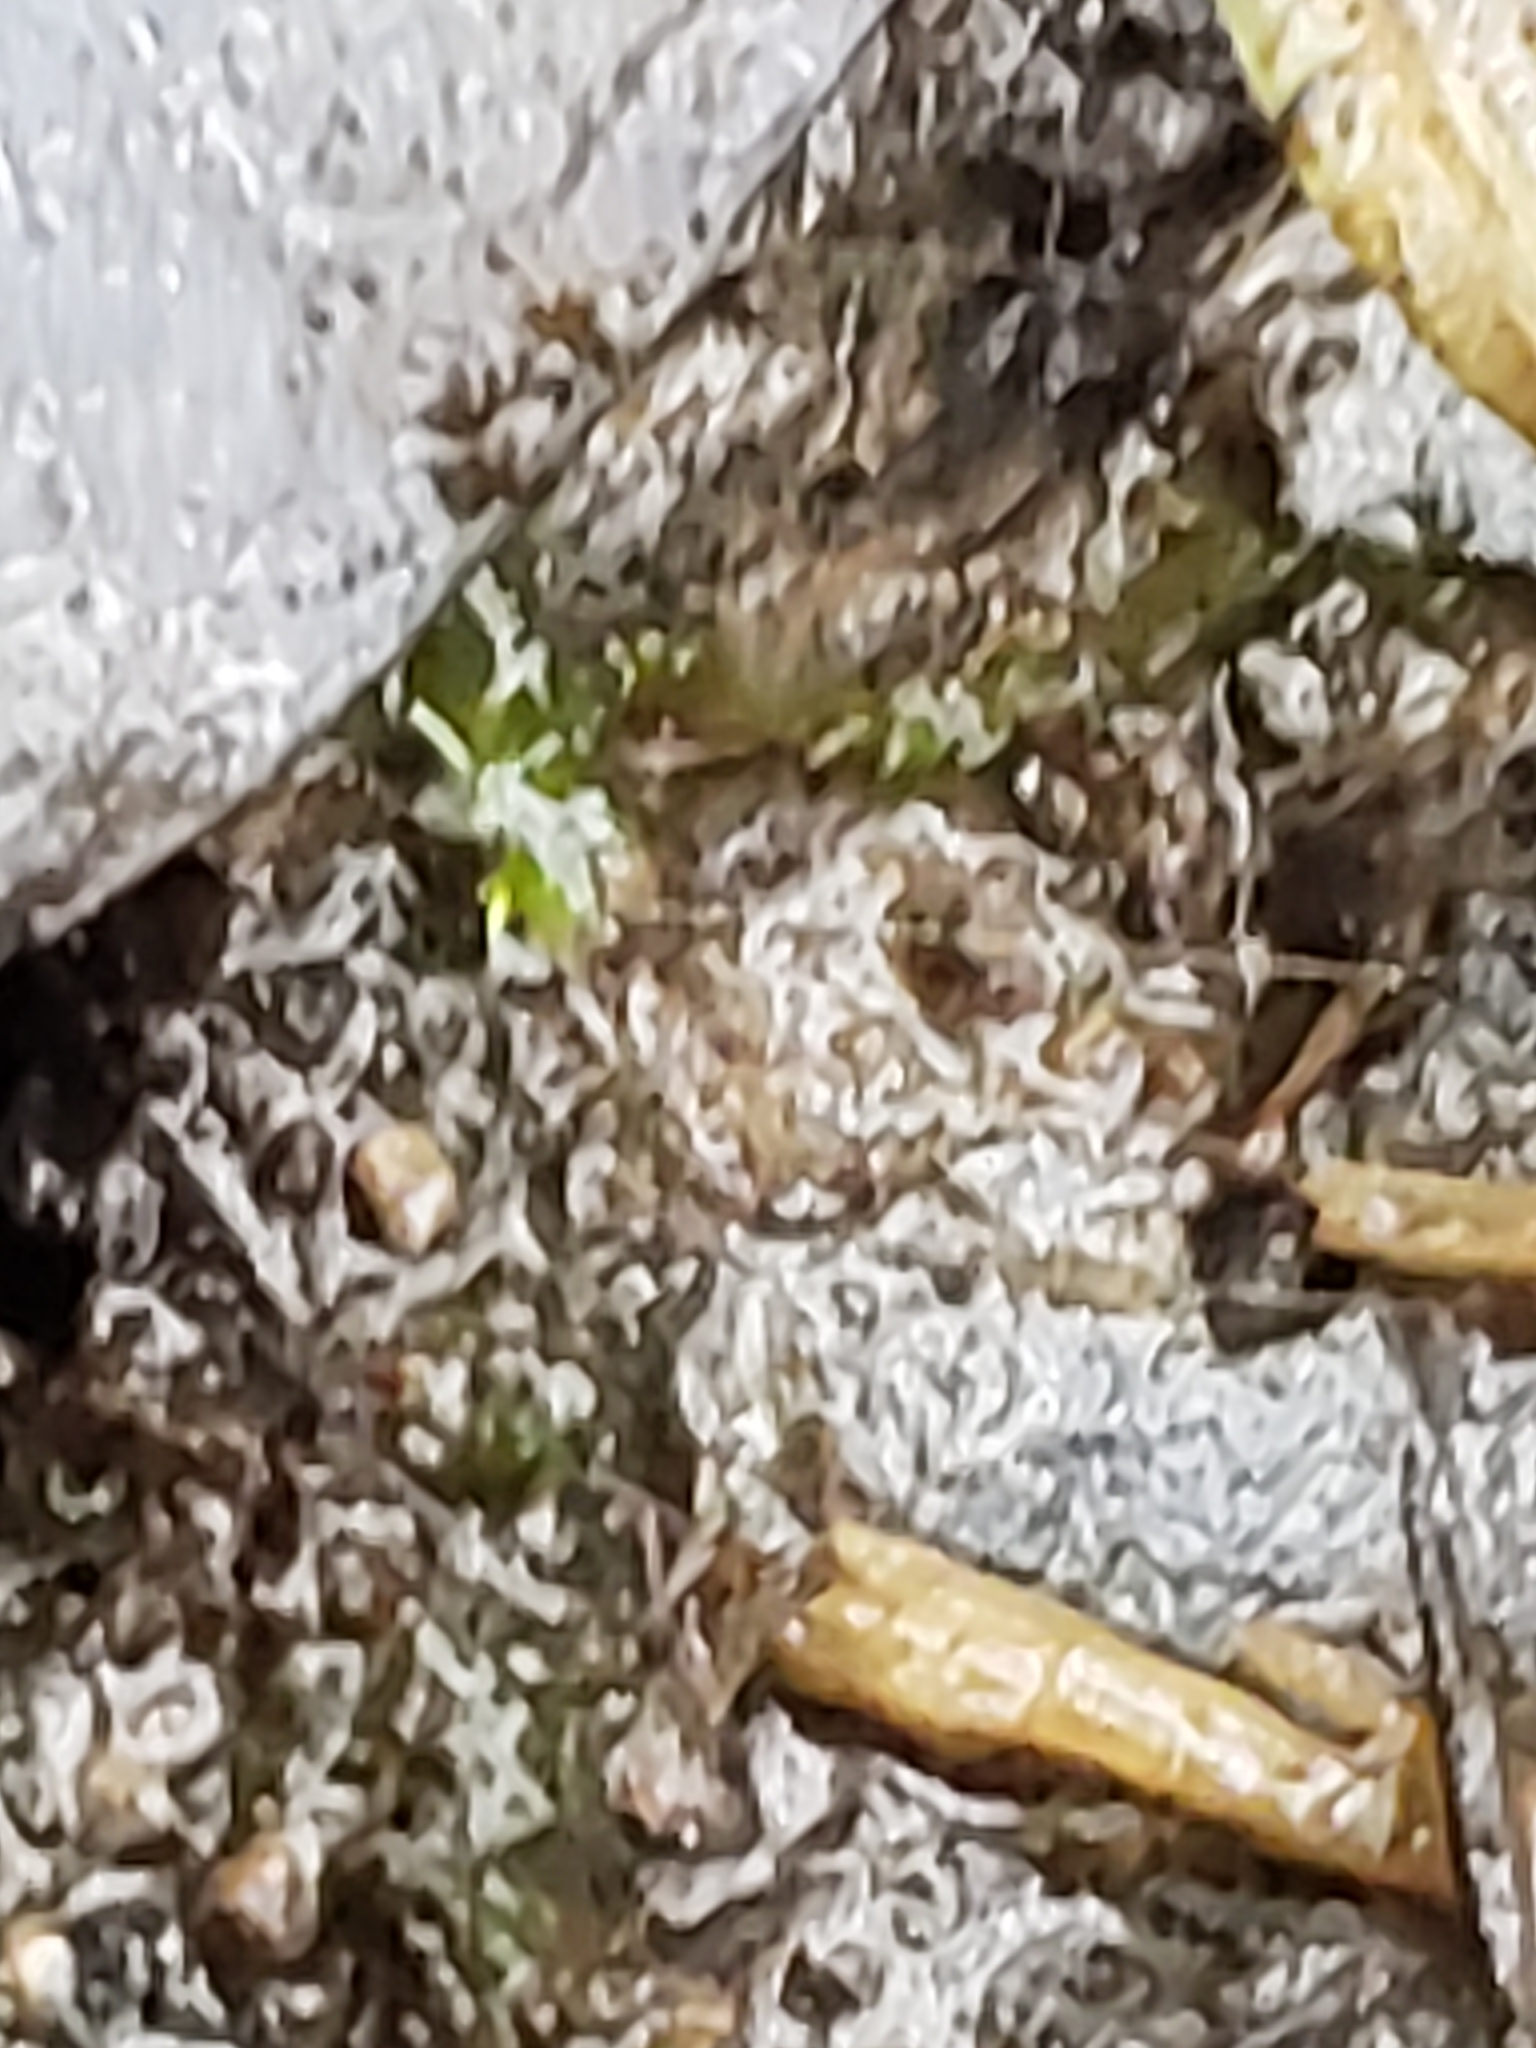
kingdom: Animalia
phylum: Arthropoda
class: Insecta
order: Hemiptera
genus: Kirkaldya
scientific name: Kirkaldya
